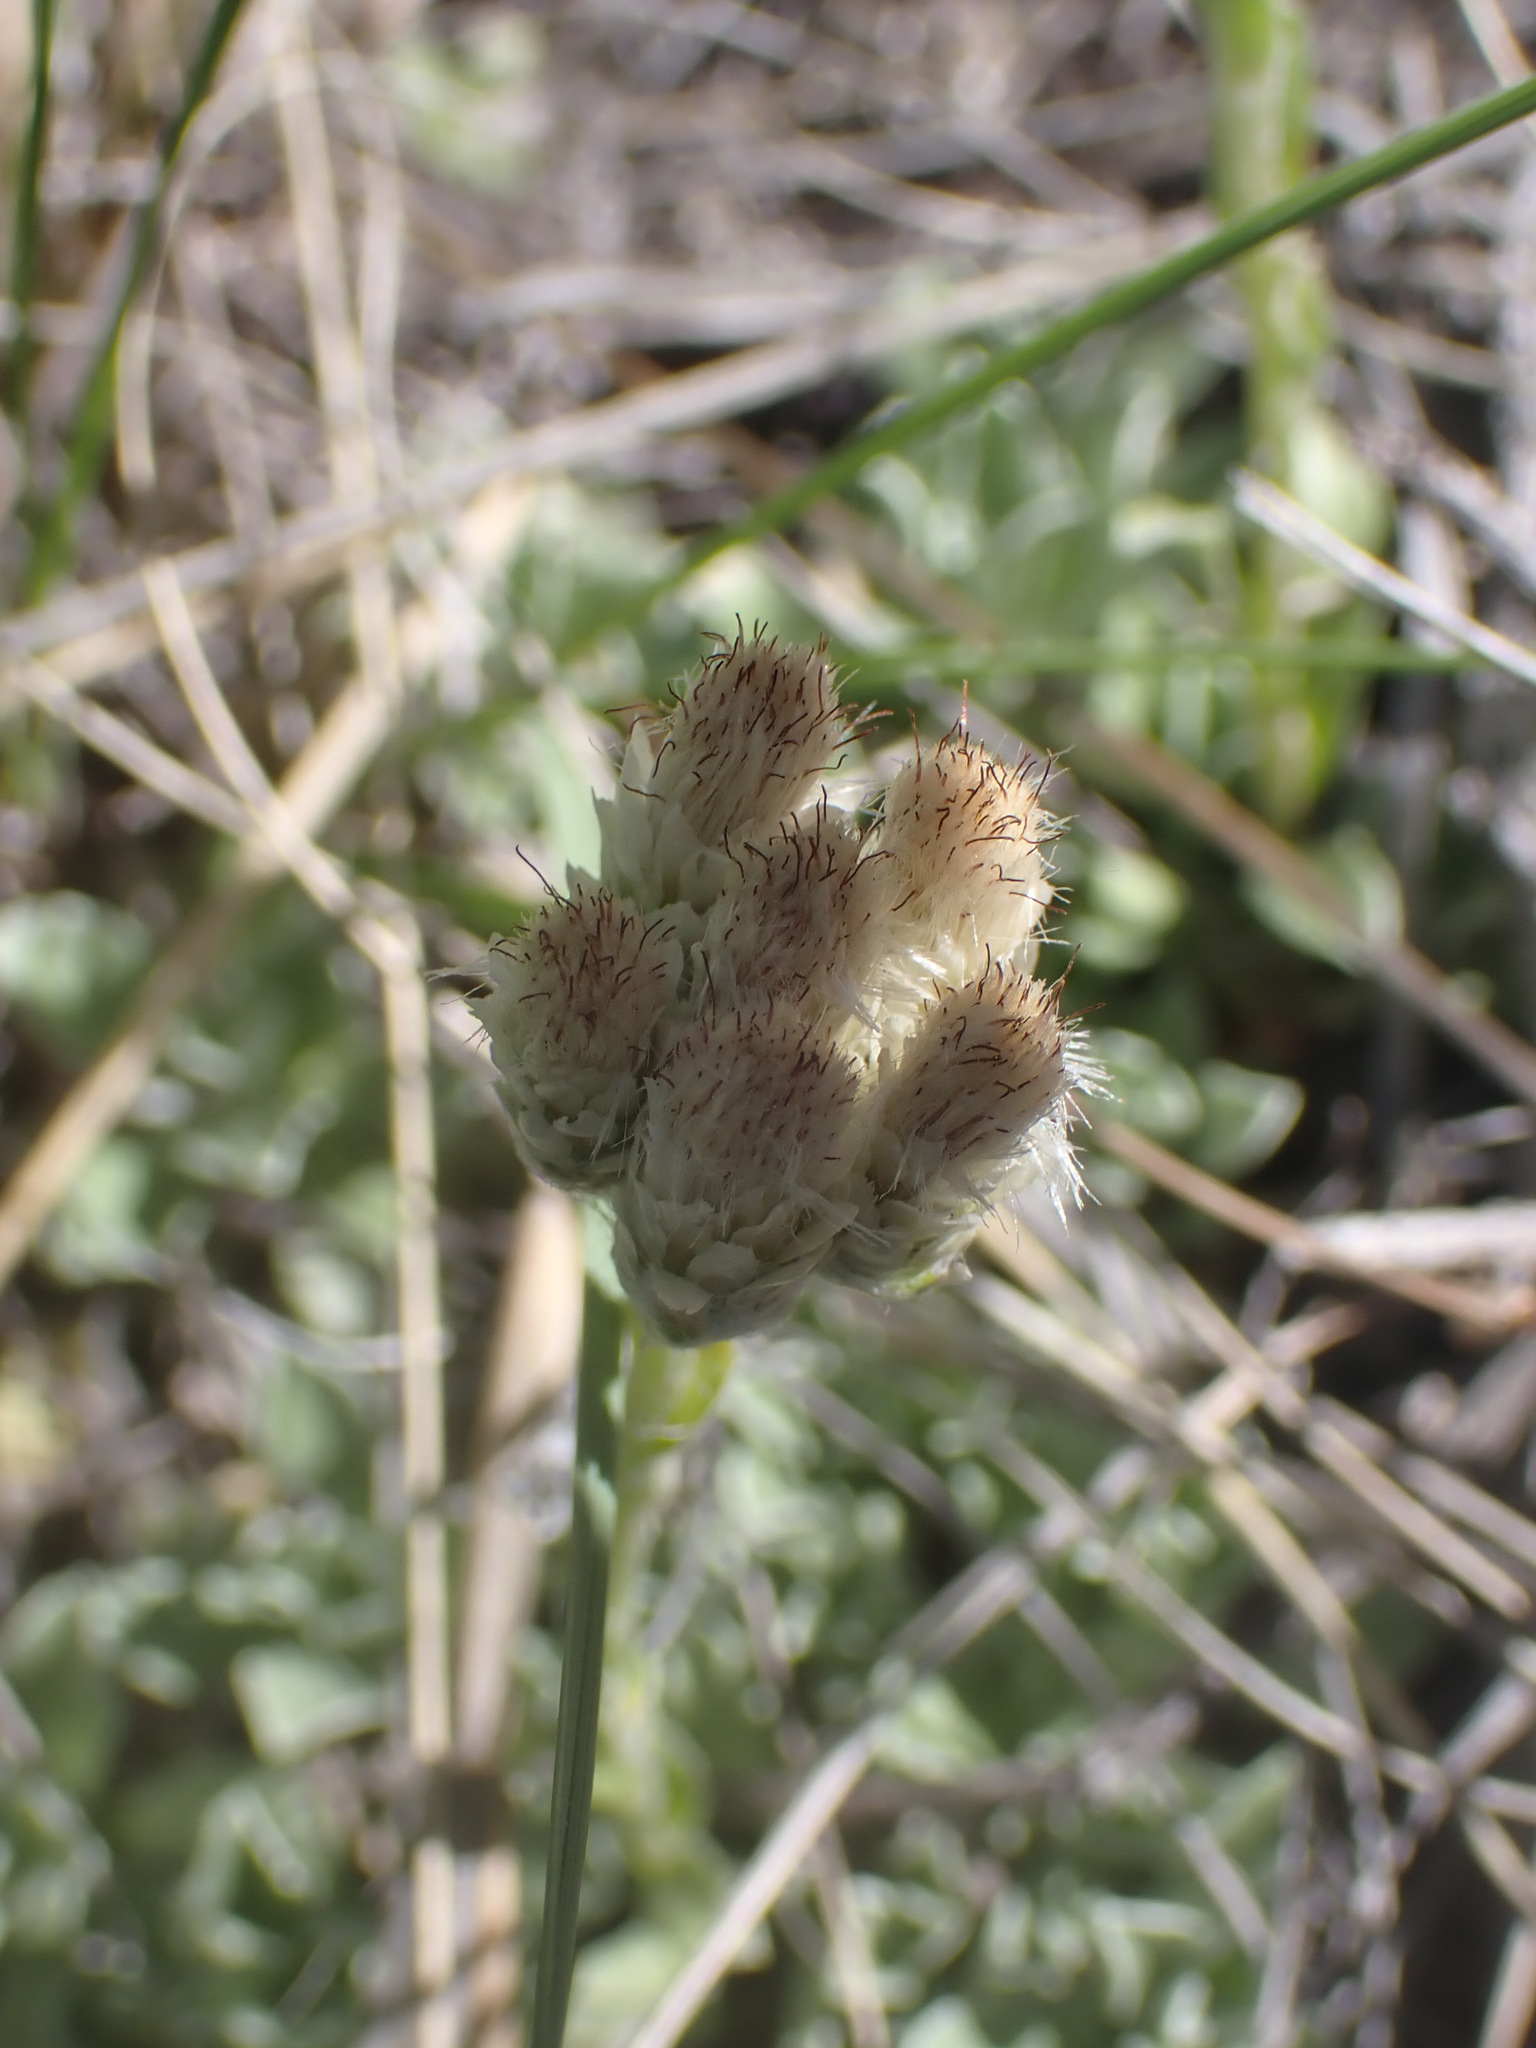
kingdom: Plantae
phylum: Tracheophyta
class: Magnoliopsida
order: Asterales
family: Asteraceae
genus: Antennaria
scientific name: Antennaria parvifolia
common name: Nuttall's pussytoes
